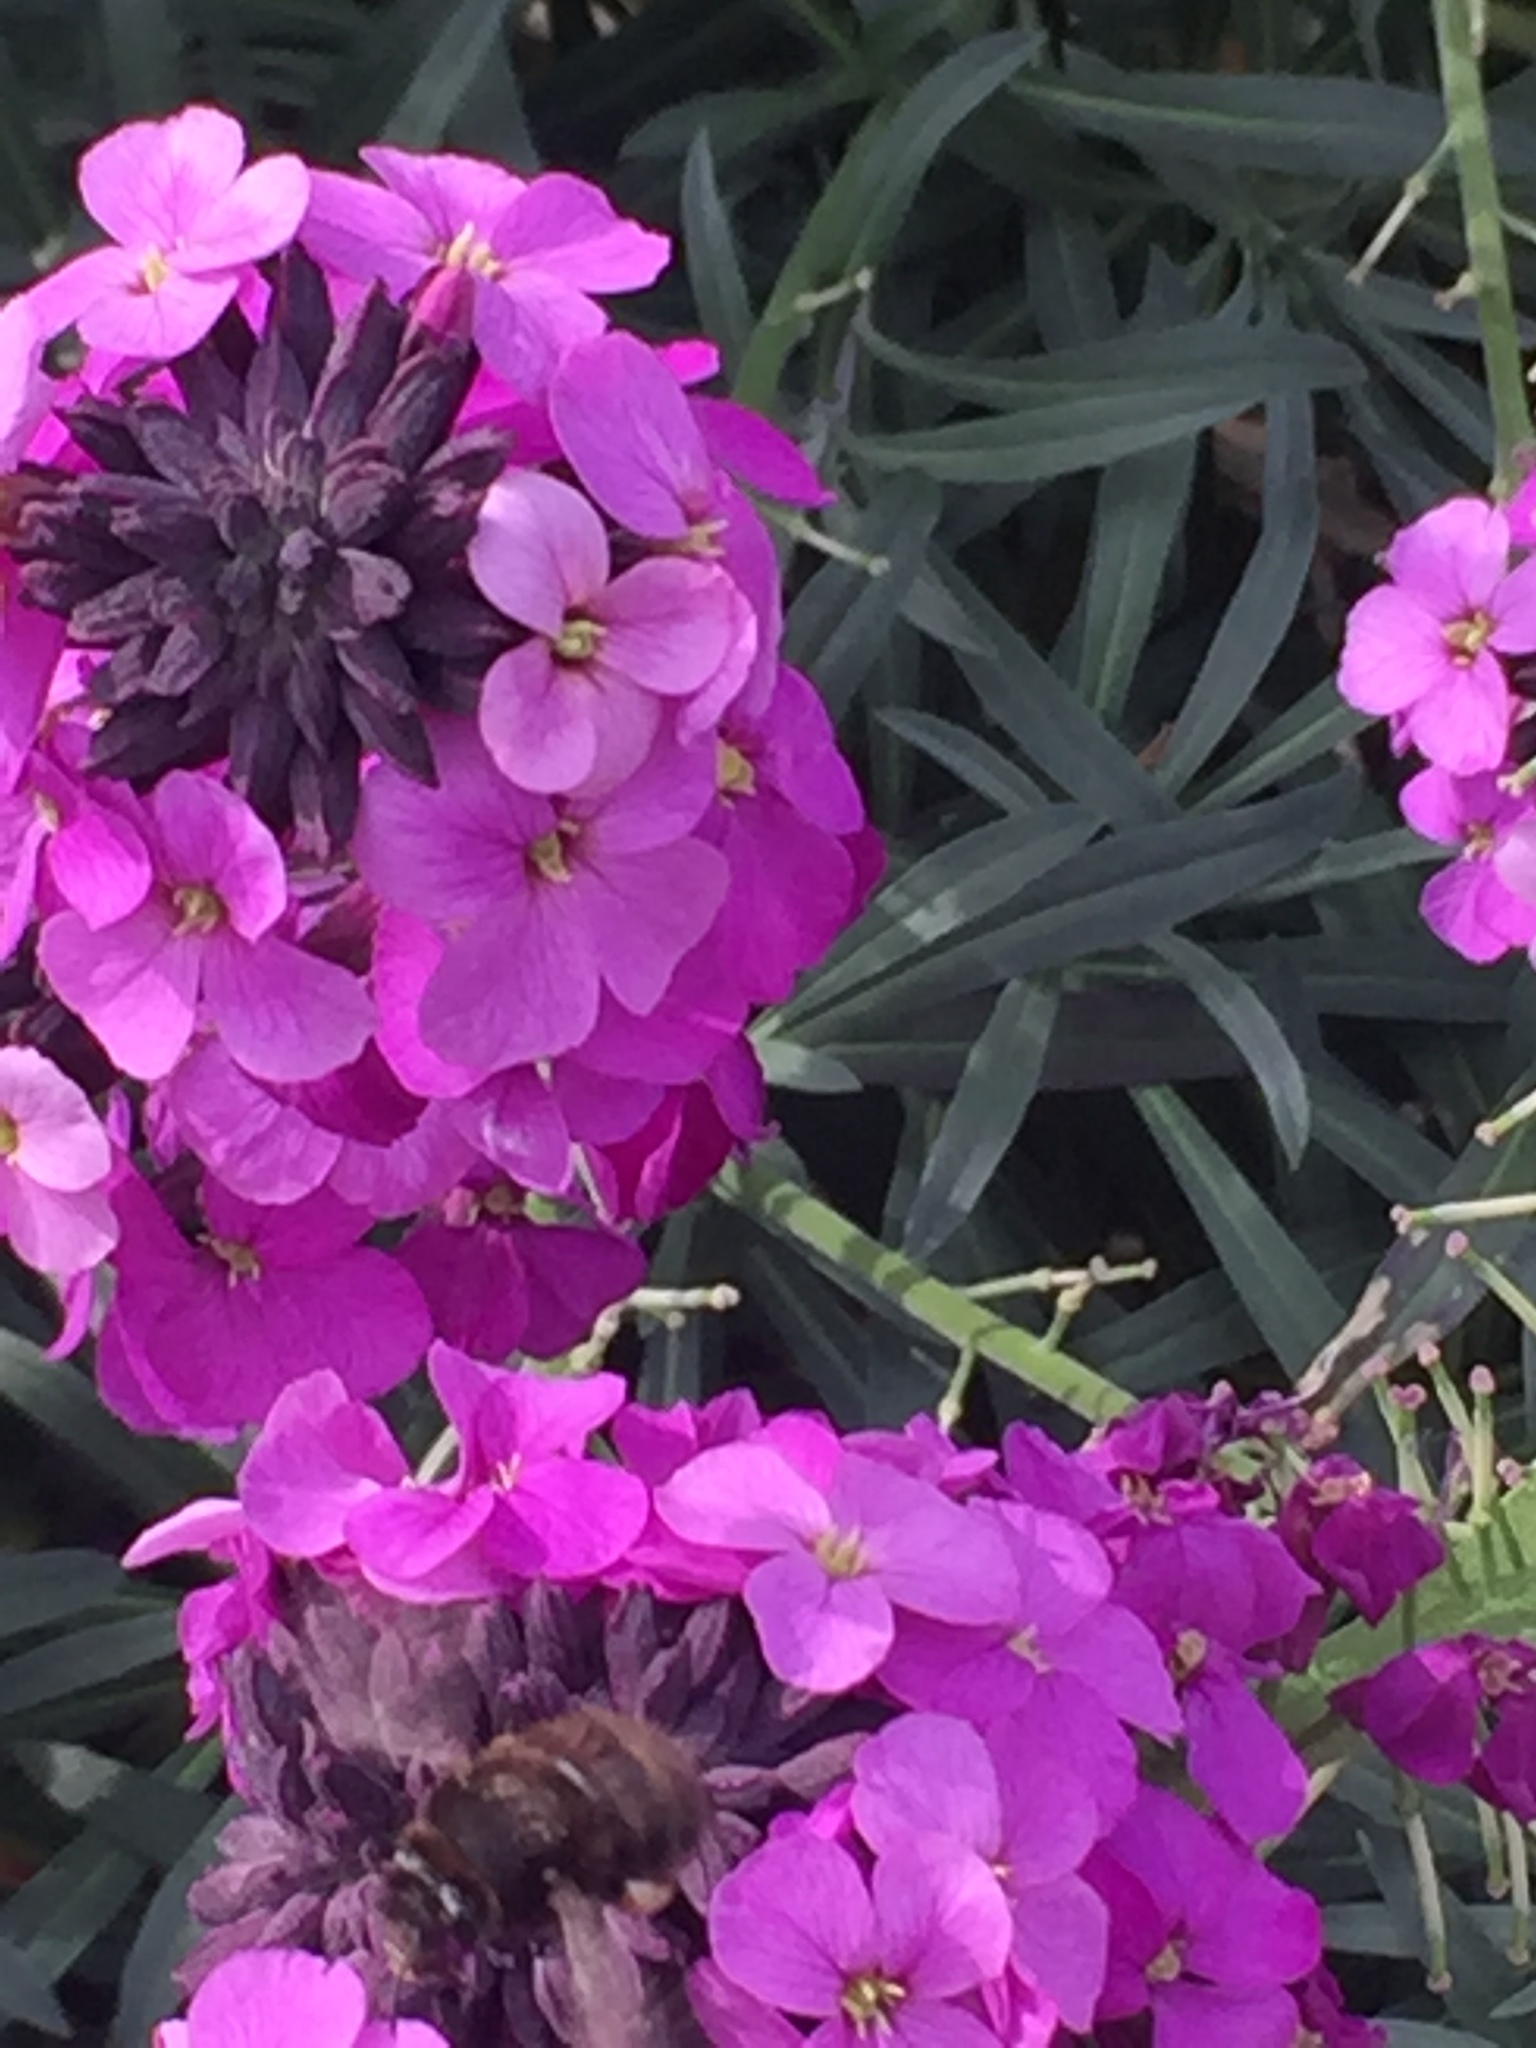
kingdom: Animalia
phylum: Arthropoda
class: Insecta
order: Hymenoptera
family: Apidae
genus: Anthophora
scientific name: Anthophora plumipes
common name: Hairy-footed flower bee
